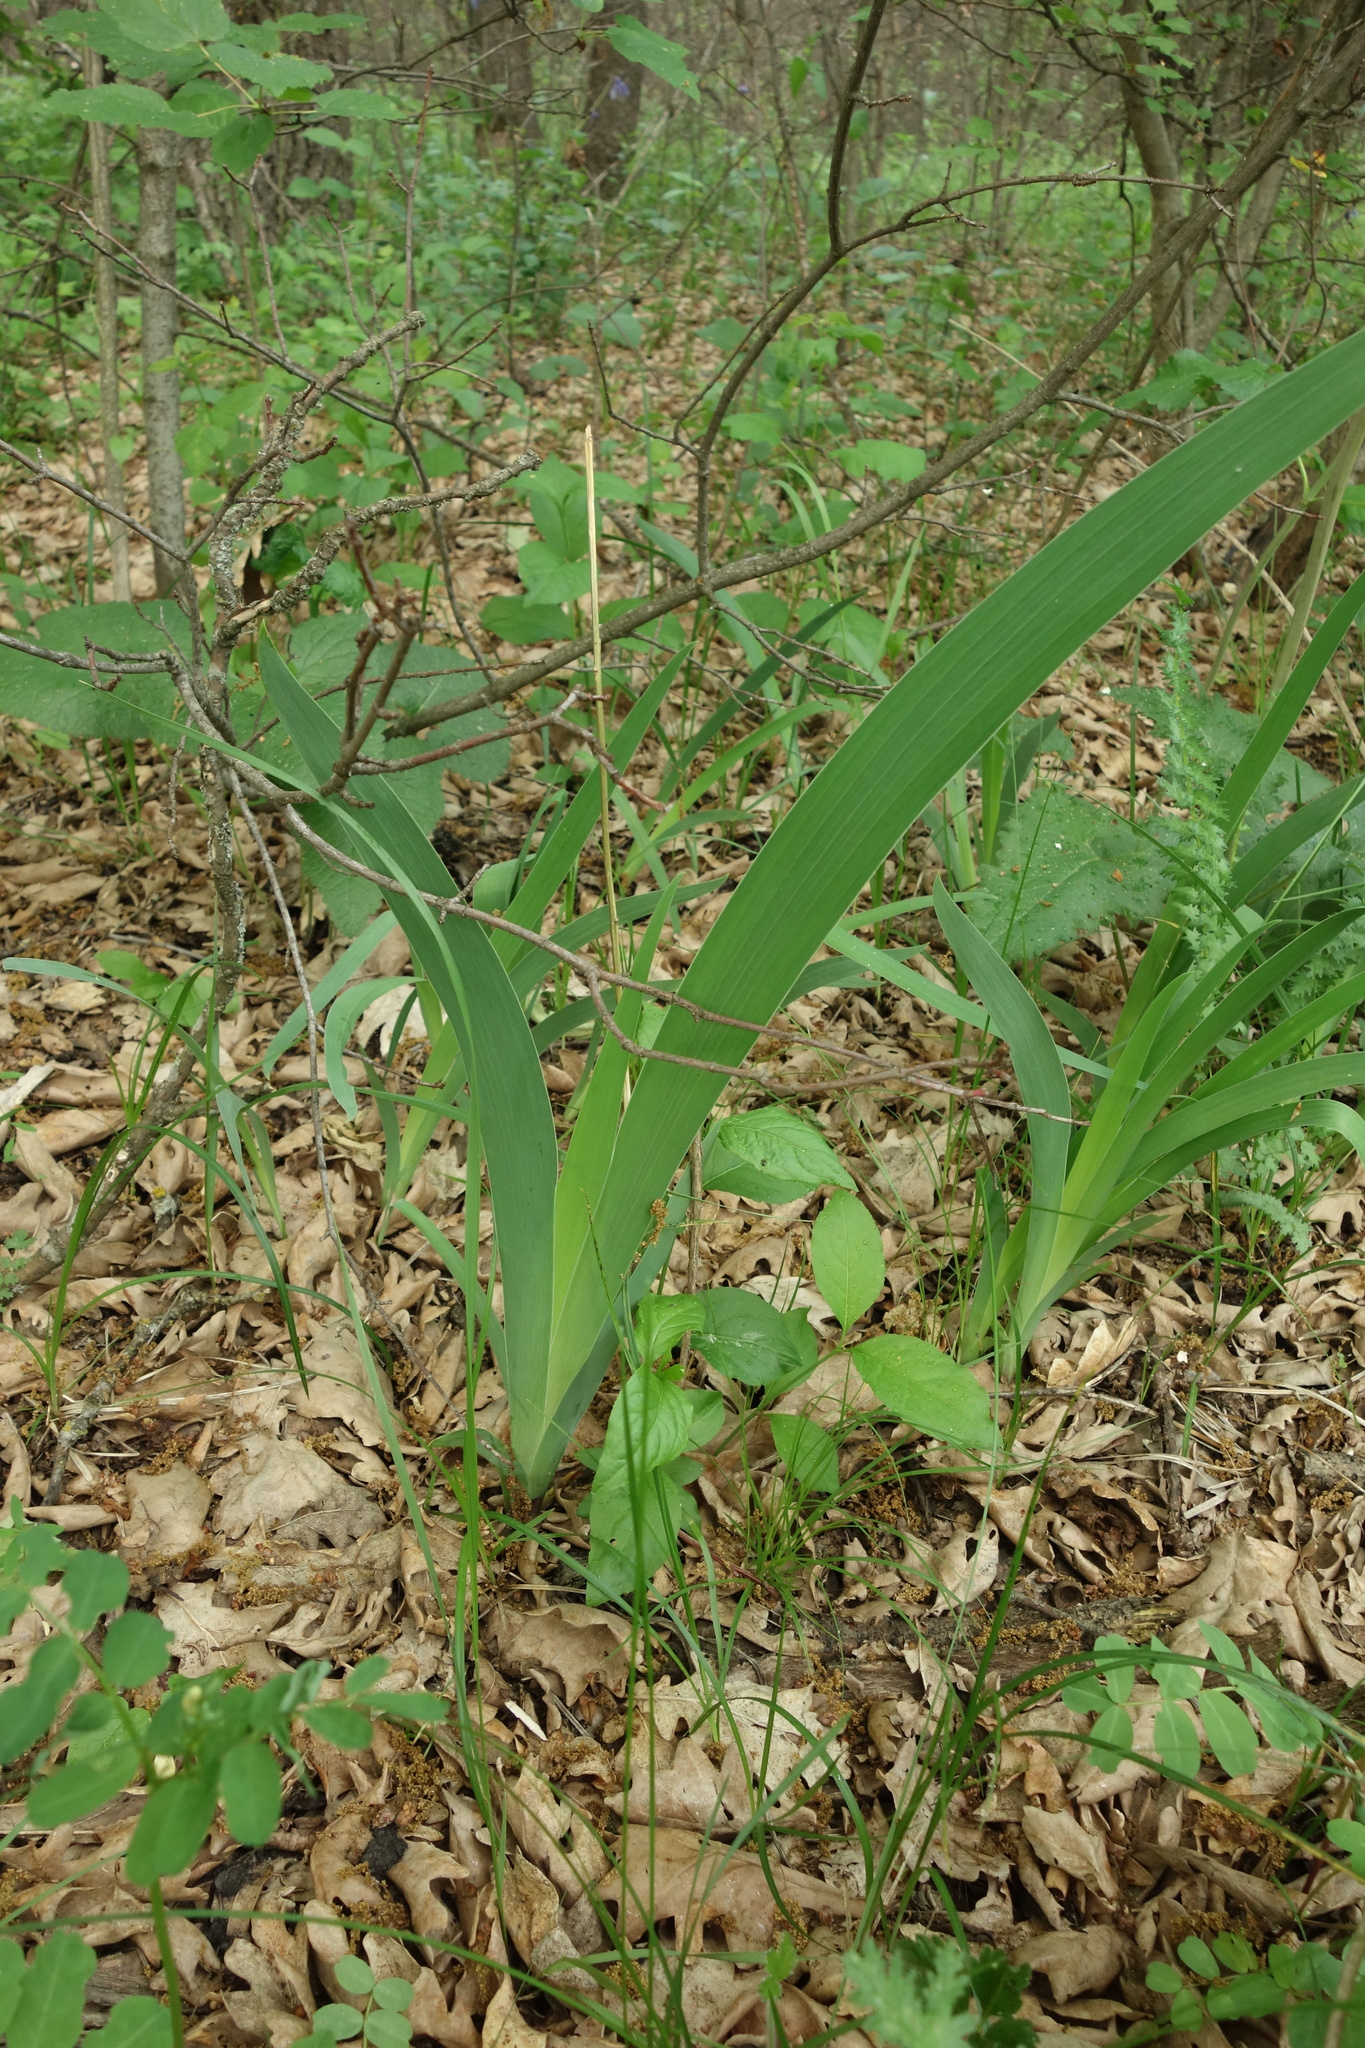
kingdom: Plantae
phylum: Tracheophyta
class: Liliopsida
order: Asparagales
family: Iridaceae
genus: Iris
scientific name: Iris aphylla
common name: Stool iris
